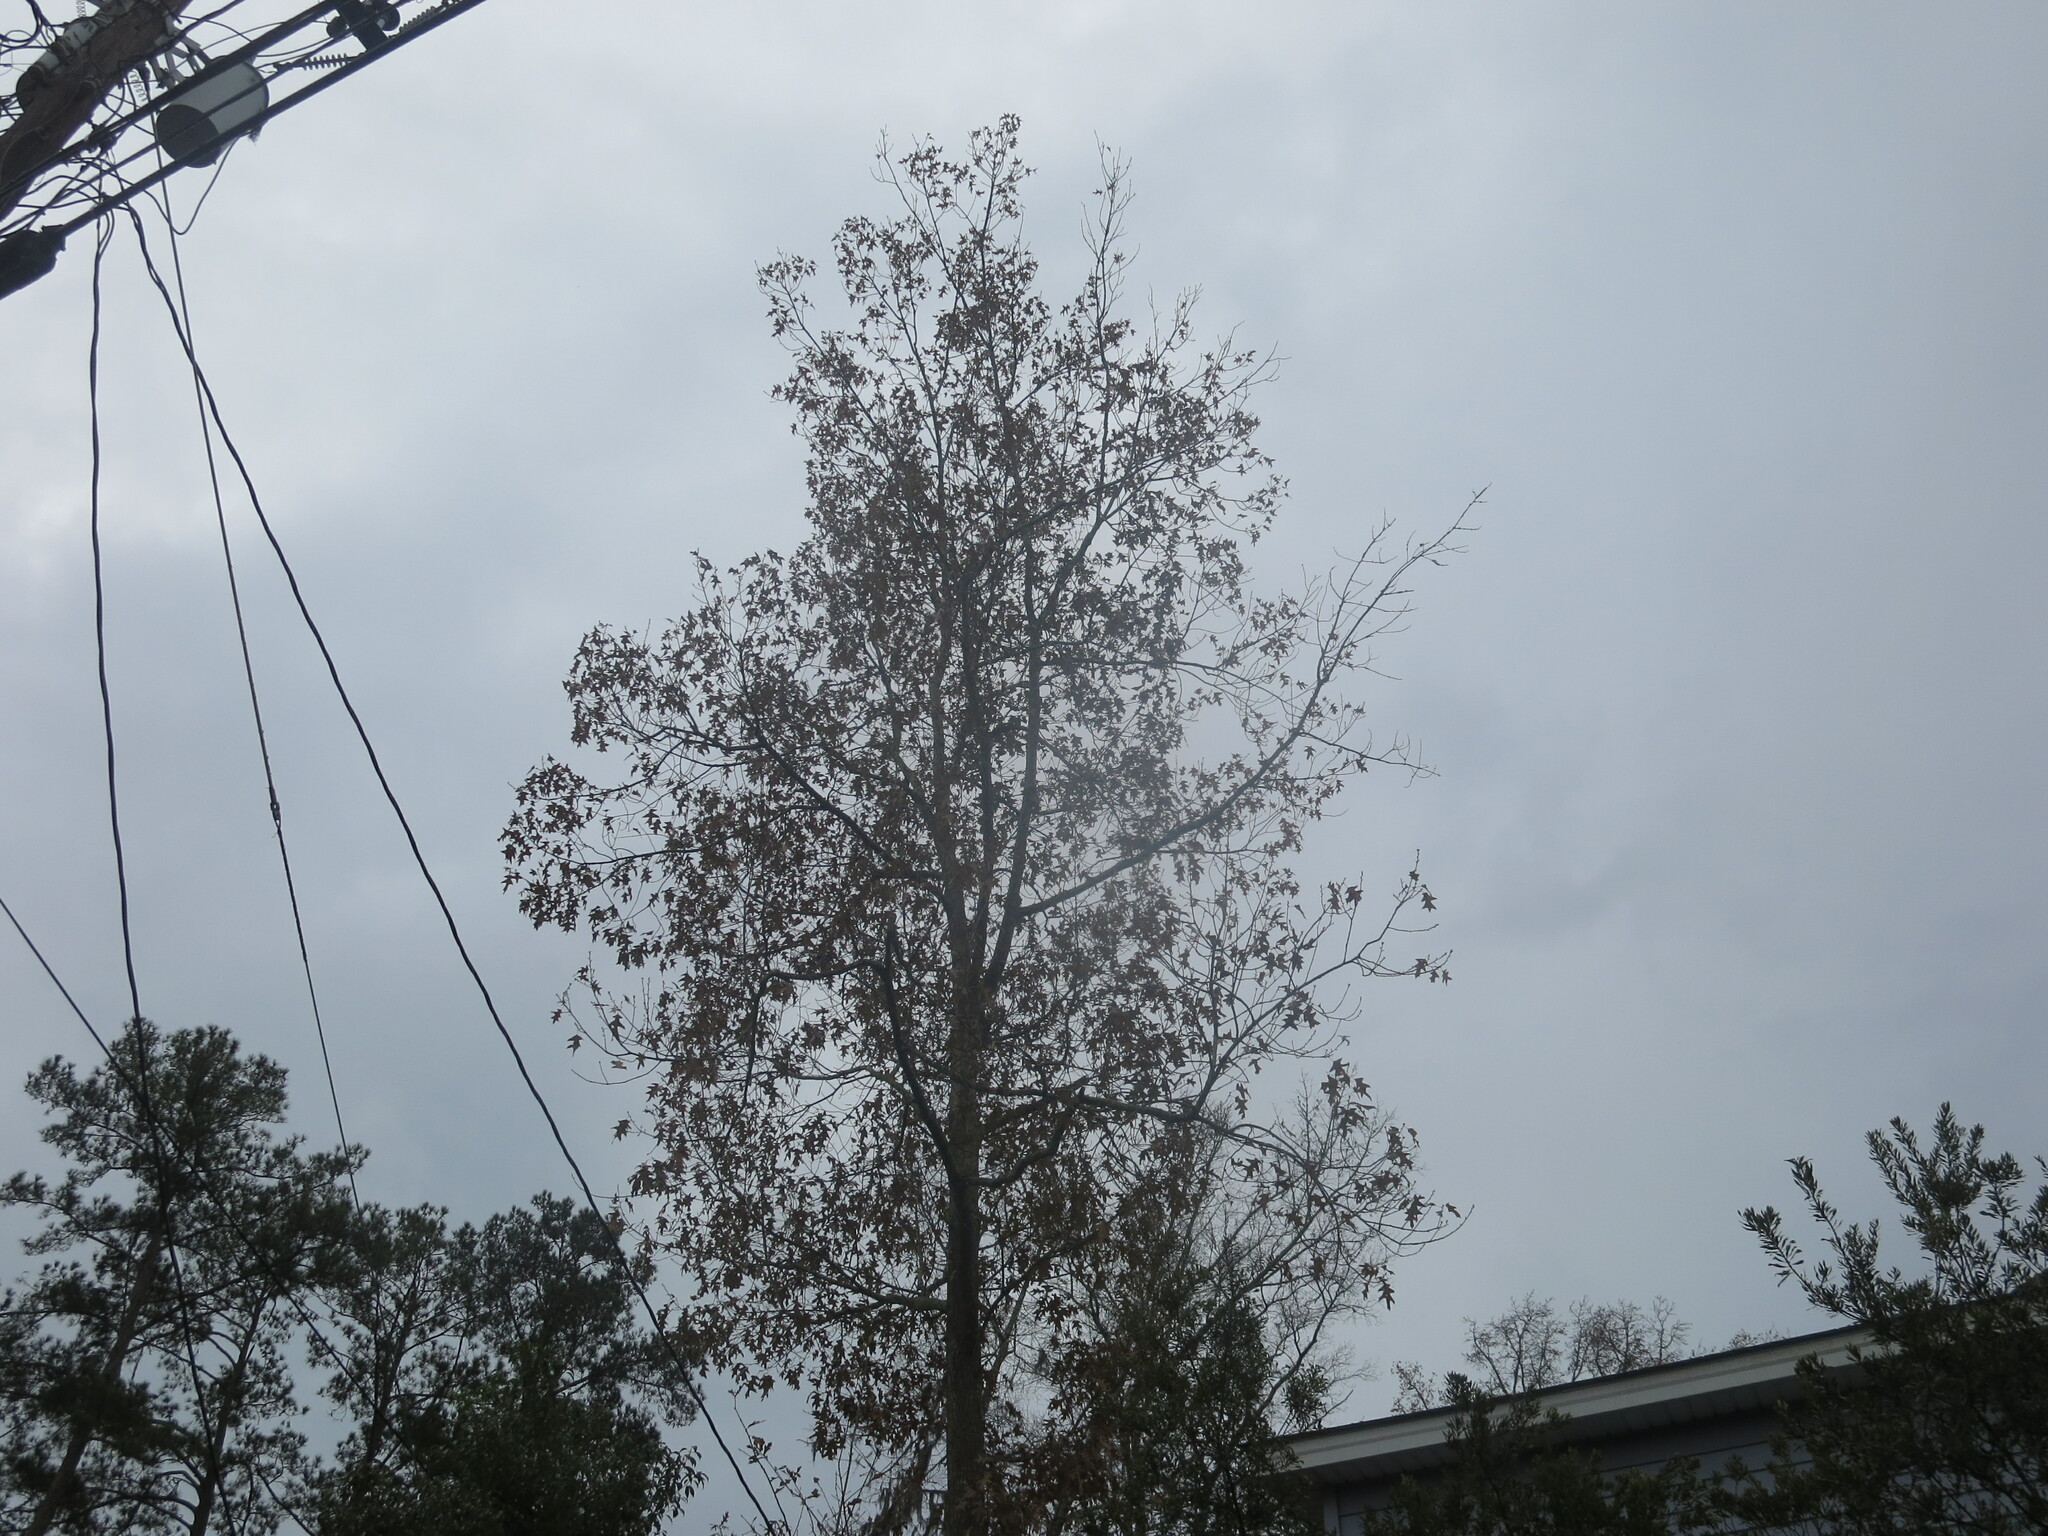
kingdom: Plantae
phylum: Tracheophyta
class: Magnoliopsida
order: Fagales
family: Fagaceae
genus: Quercus
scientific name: Quercus pagoda
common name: Cherrybark oak
